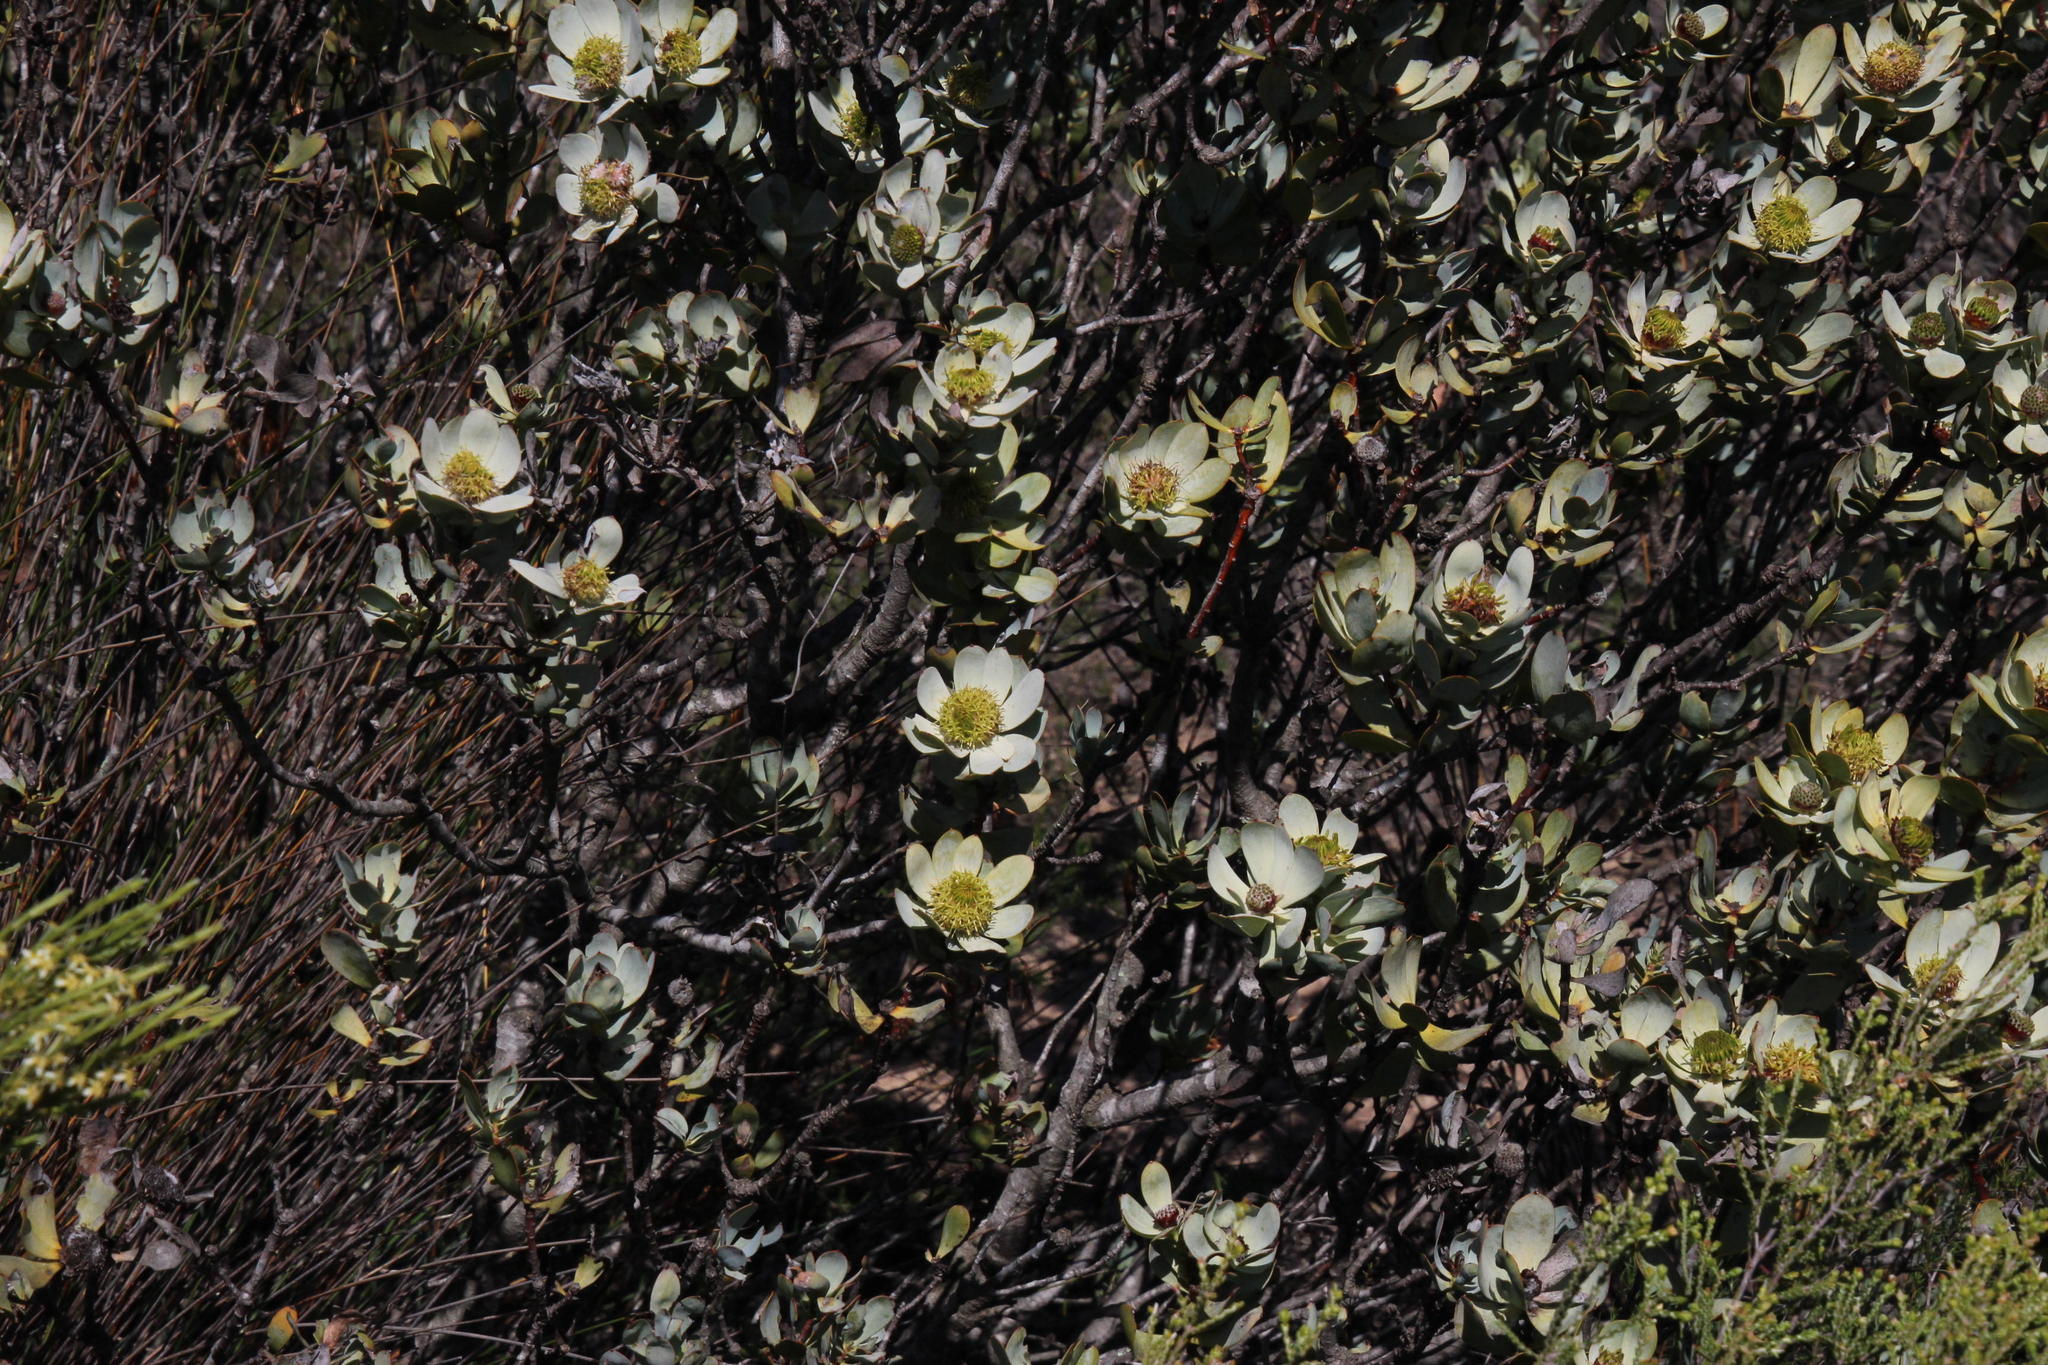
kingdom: Plantae
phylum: Tracheophyta
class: Magnoliopsida
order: Proteales
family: Proteaceae
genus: Leucadendron
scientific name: Leucadendron loranthifolium
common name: Green-flower sunbush
